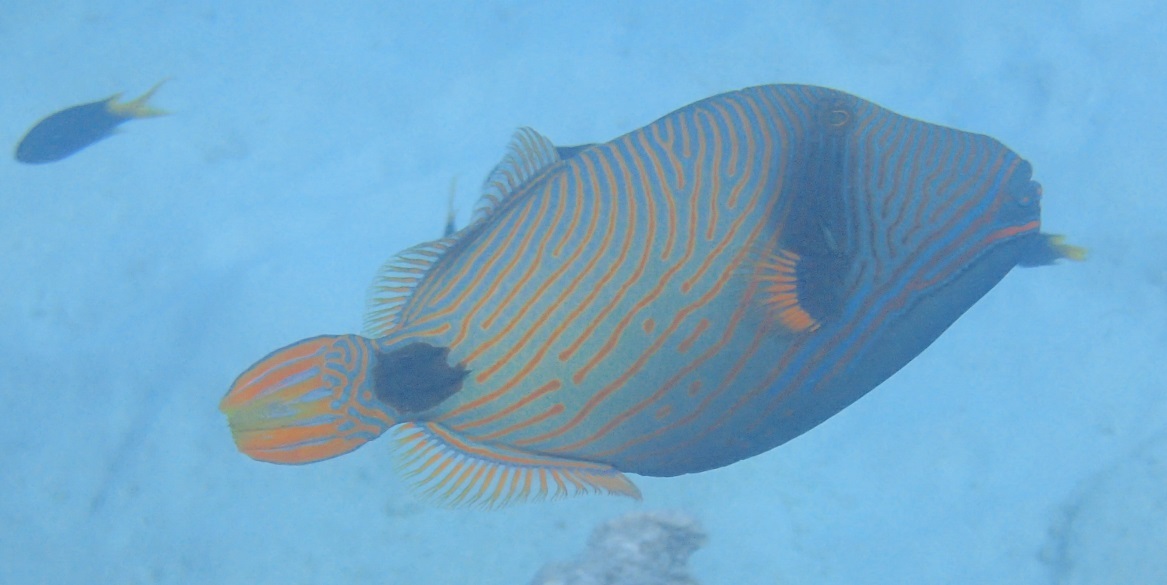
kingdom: Animalia
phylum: Chordata
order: Tetraodontiformes
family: Balistidae
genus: Balistapus
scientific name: Balistapus undulatus
